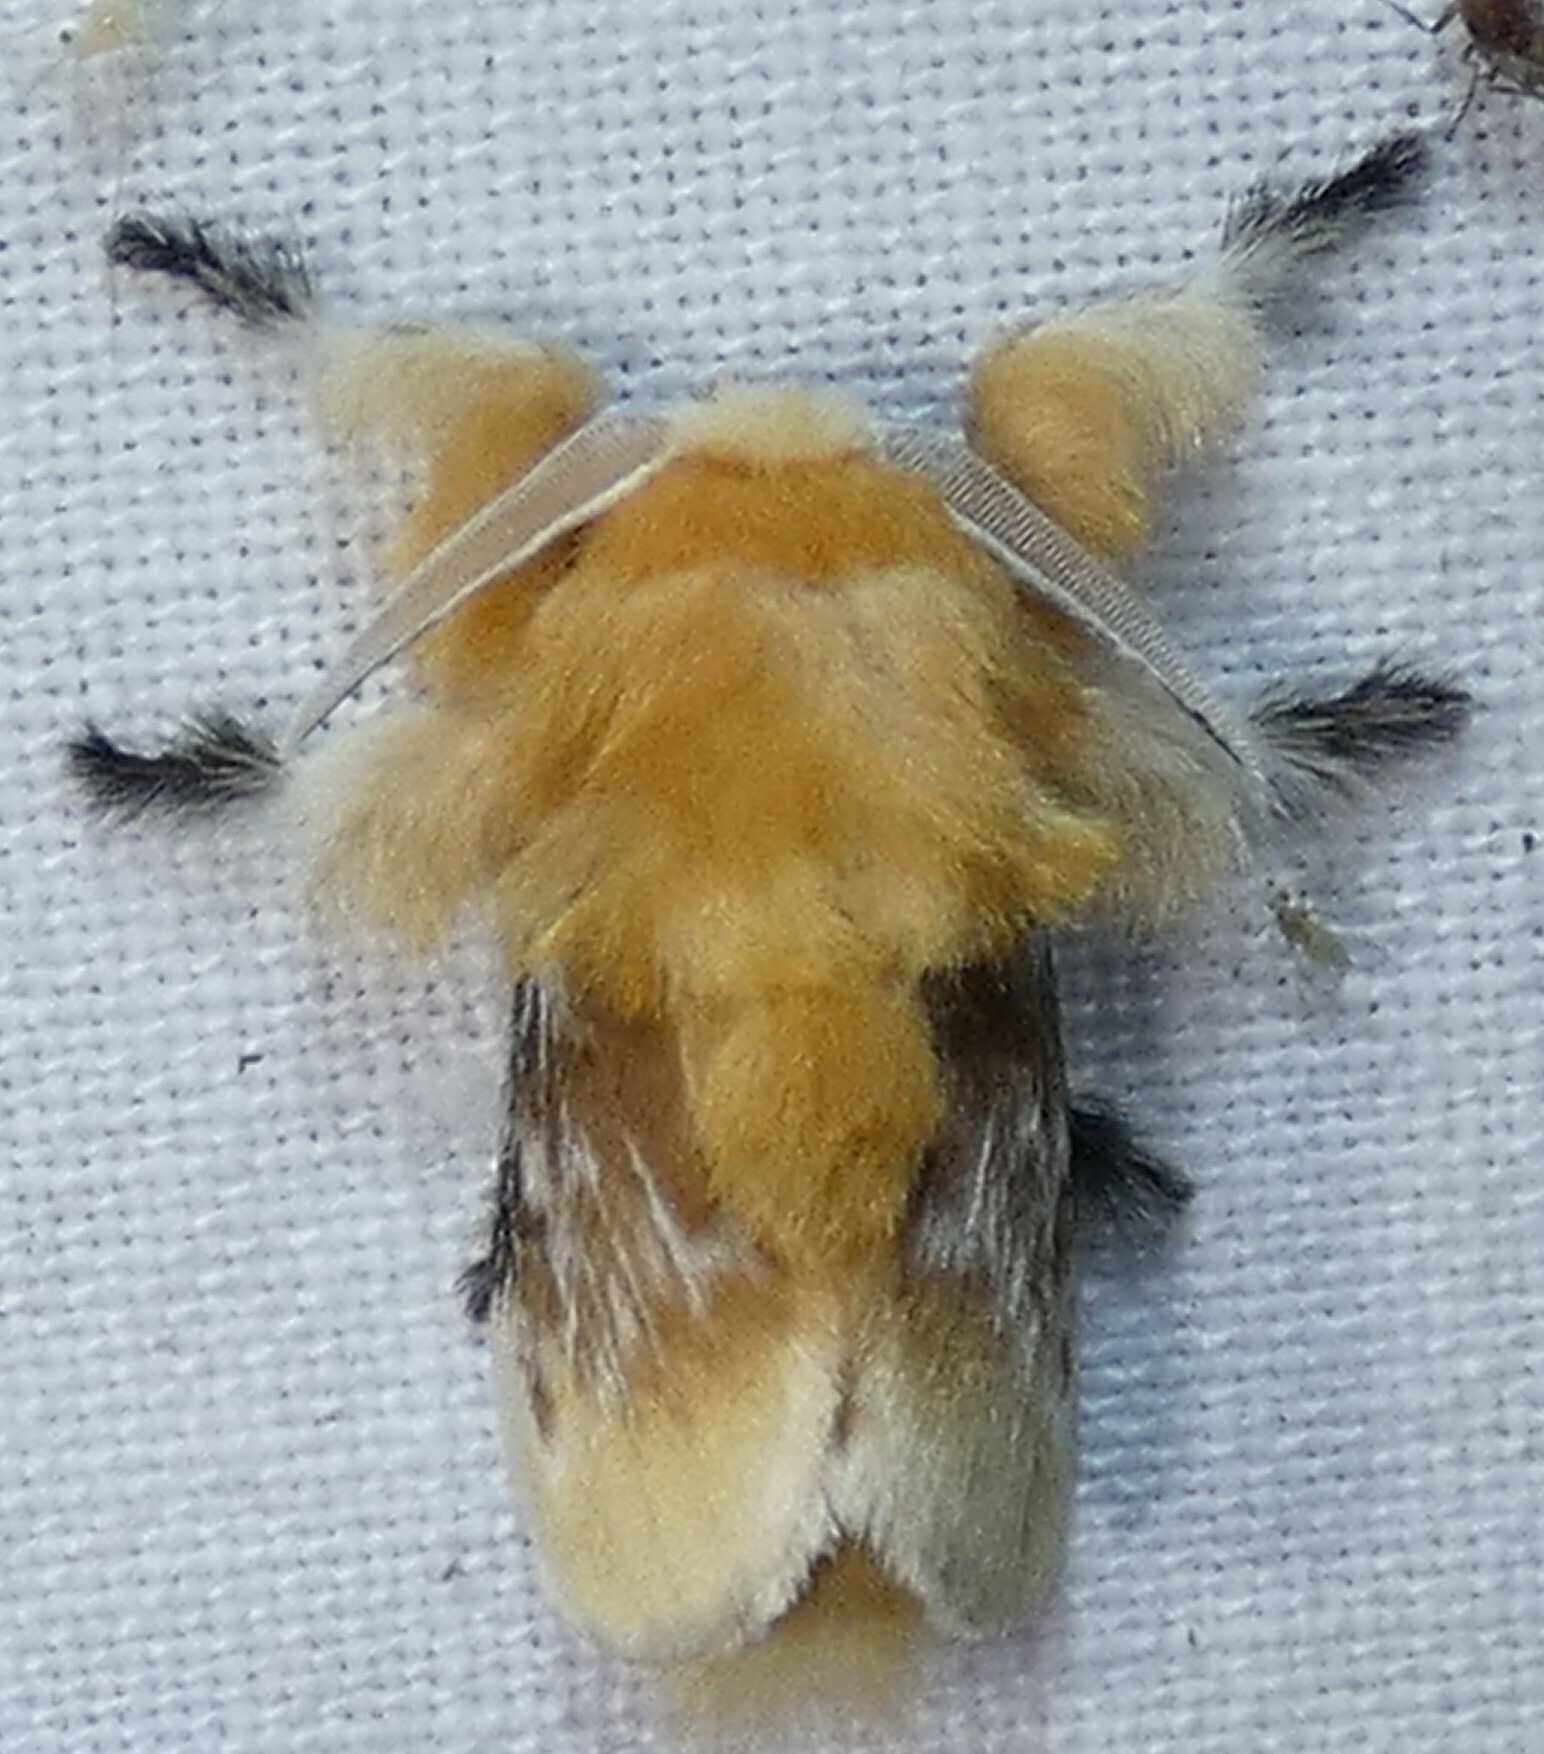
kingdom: Animalia
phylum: Arthropoda
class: Insecta
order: Lepidoptera
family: Megalopygidae
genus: Megalopyge
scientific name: Megalopyge opercularis
